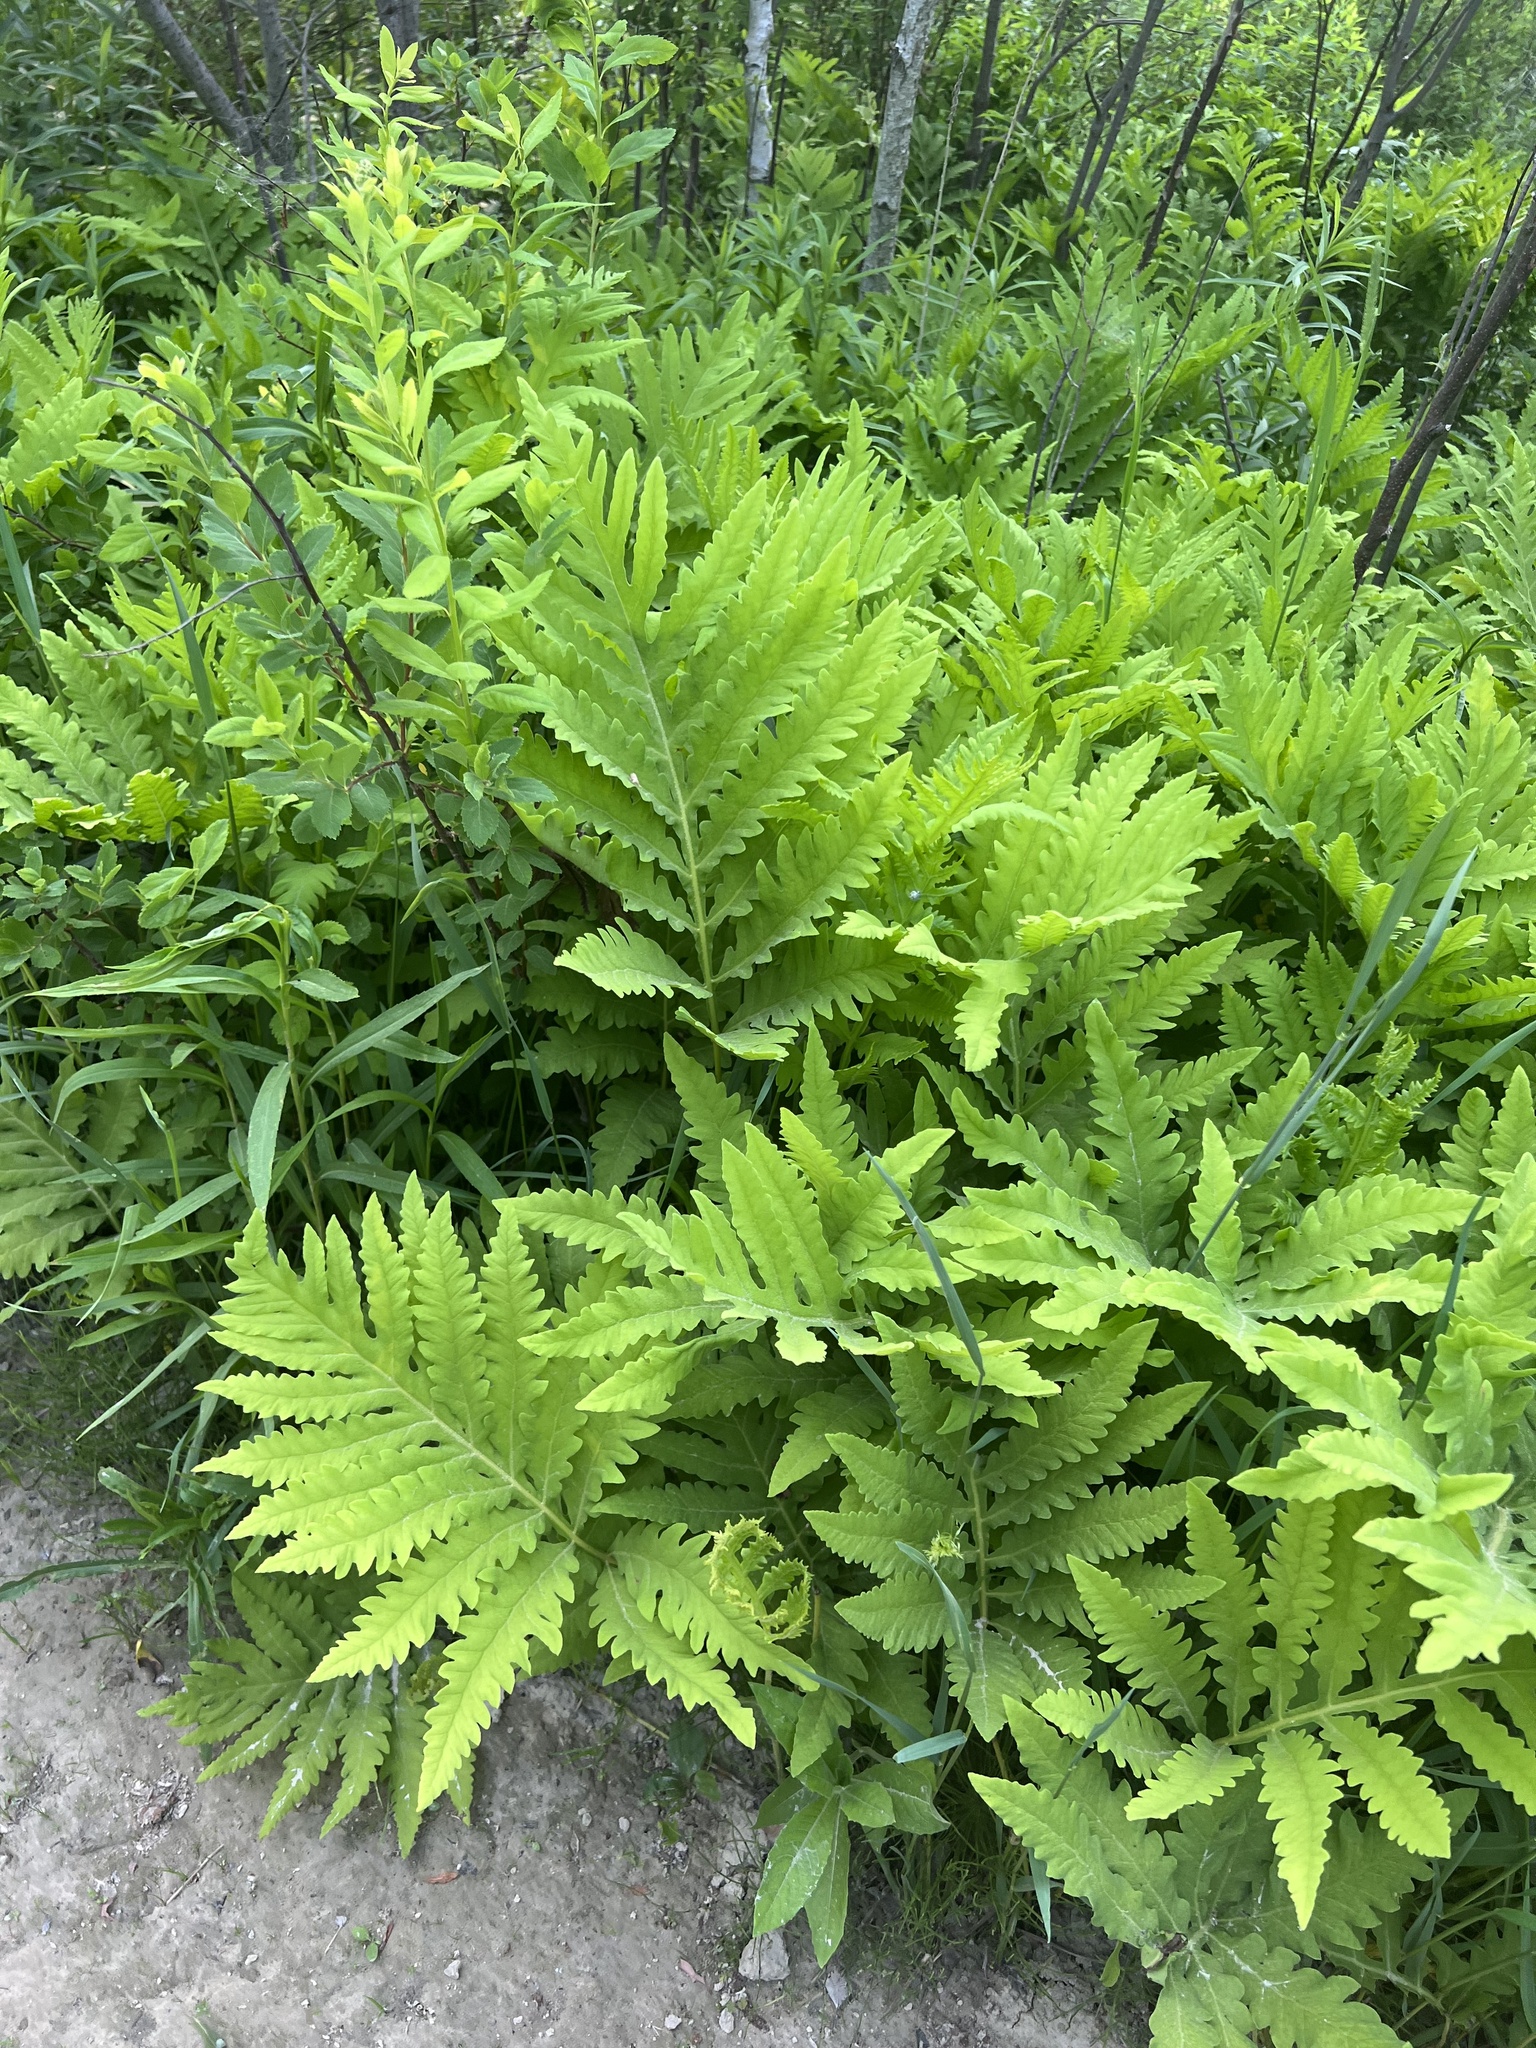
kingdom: Plantae
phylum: Tracheophyta
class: Polypodiopsida
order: Polypodiales
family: Onocleaceae
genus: Onoclea
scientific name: Onoclea sensibilis
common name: Sensitive fern
